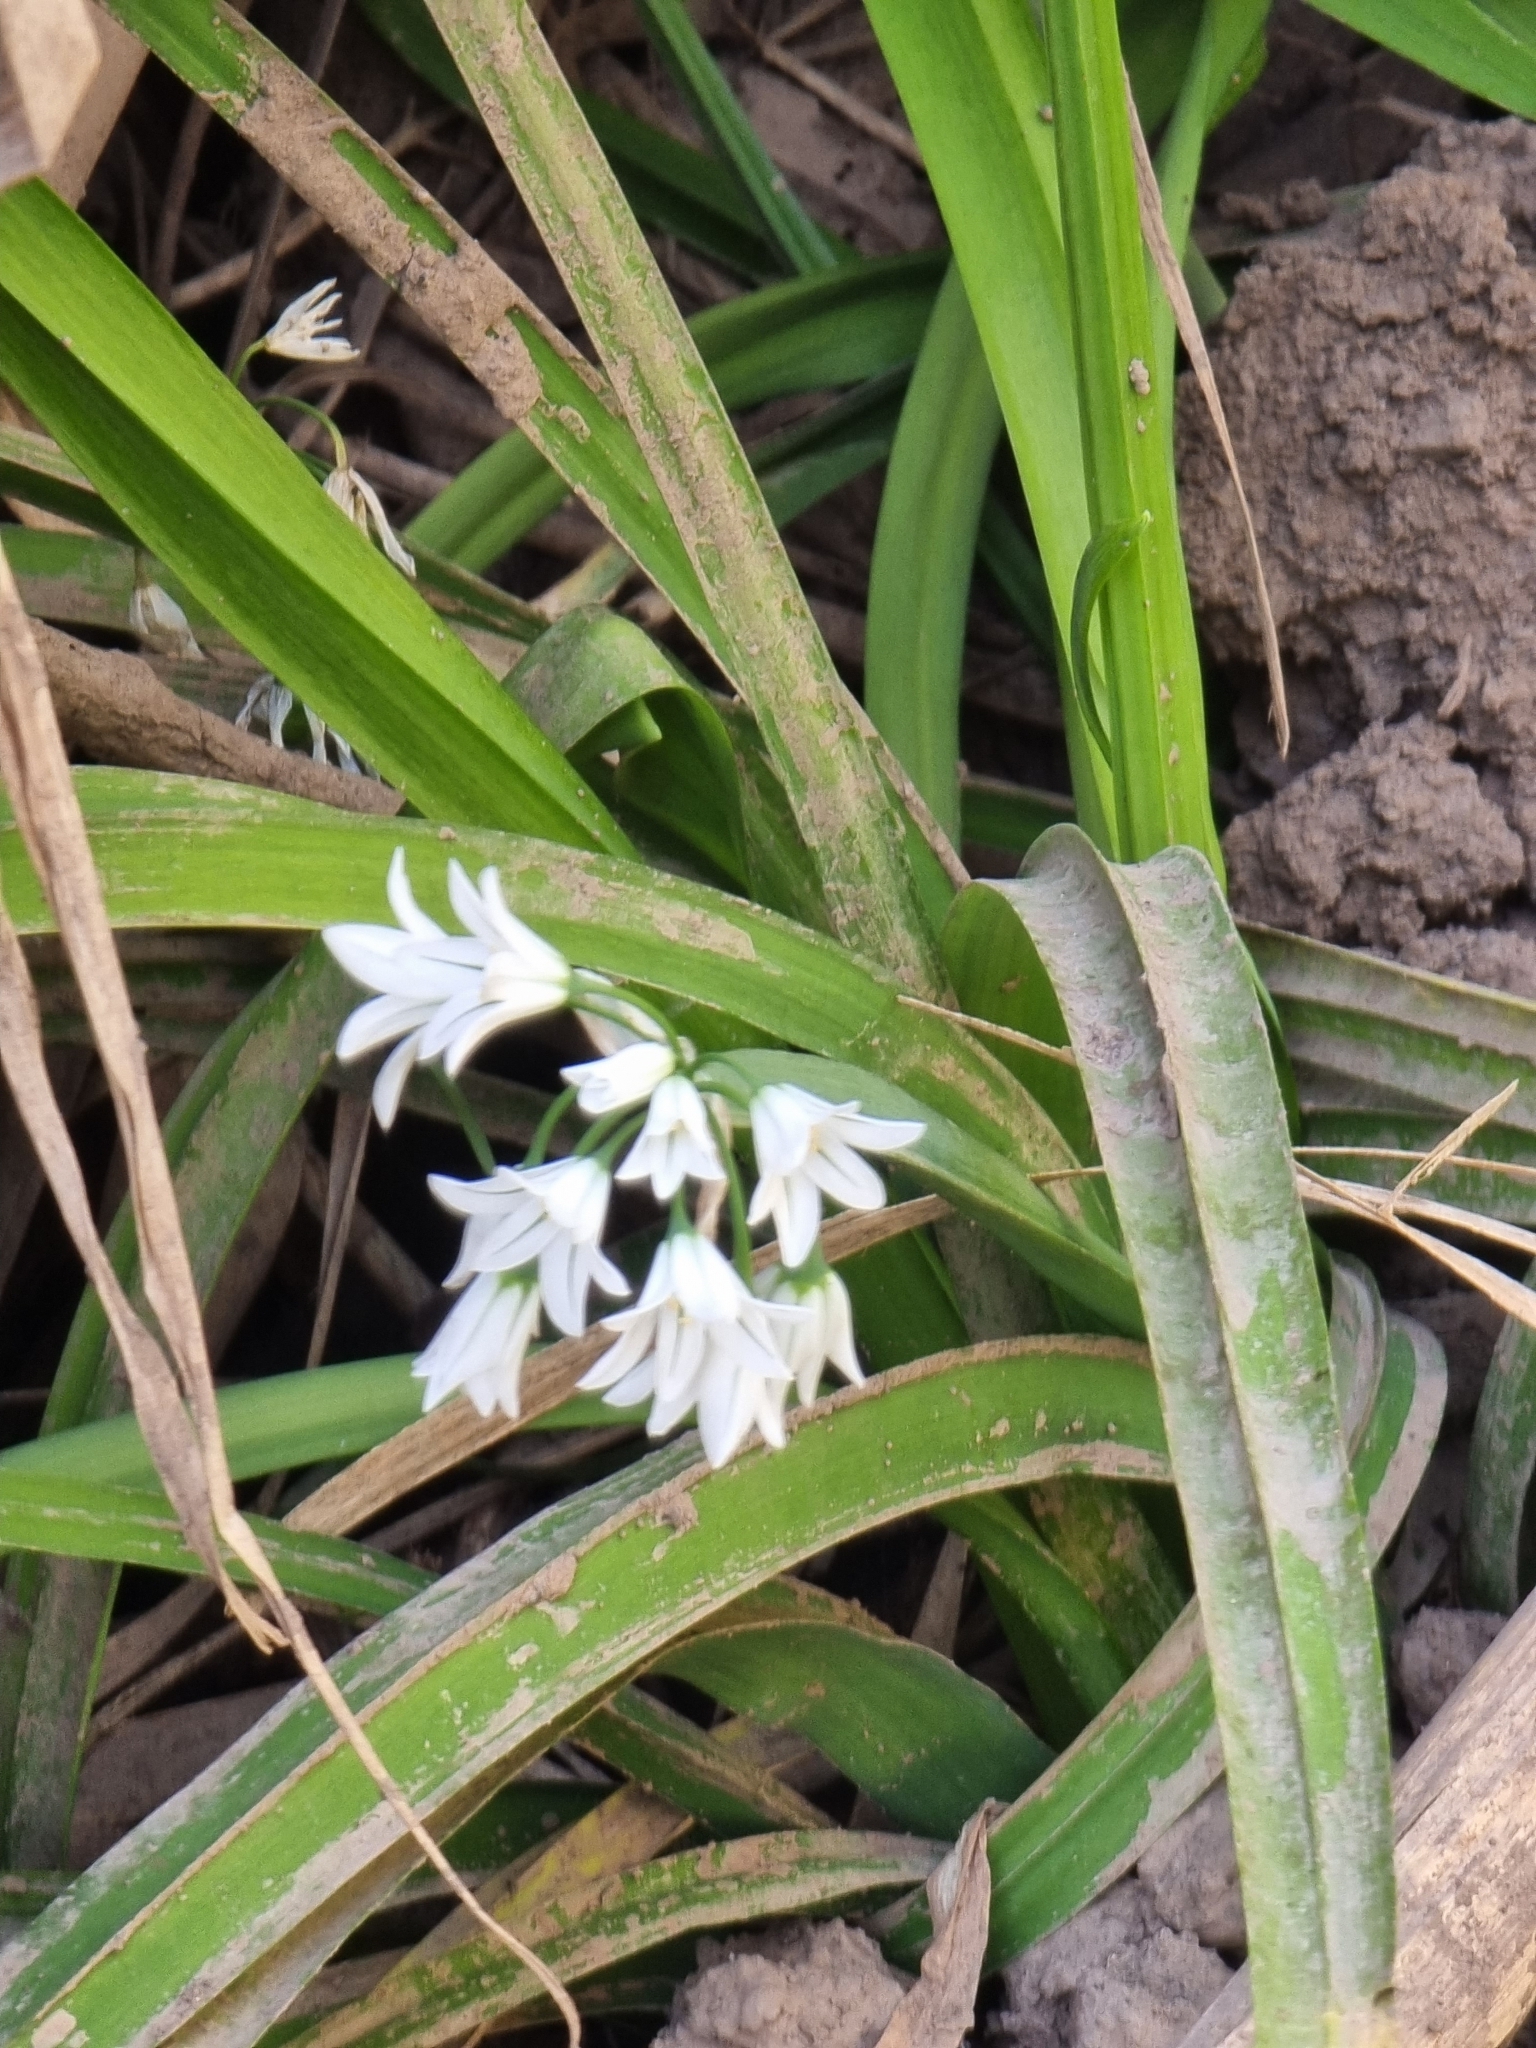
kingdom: Plantae
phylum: Tracheophyta
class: Liliopsida
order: Asparagales
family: Amaryllidaceae
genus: Allium
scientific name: Allium triquetrum
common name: Three-cornered garlic
